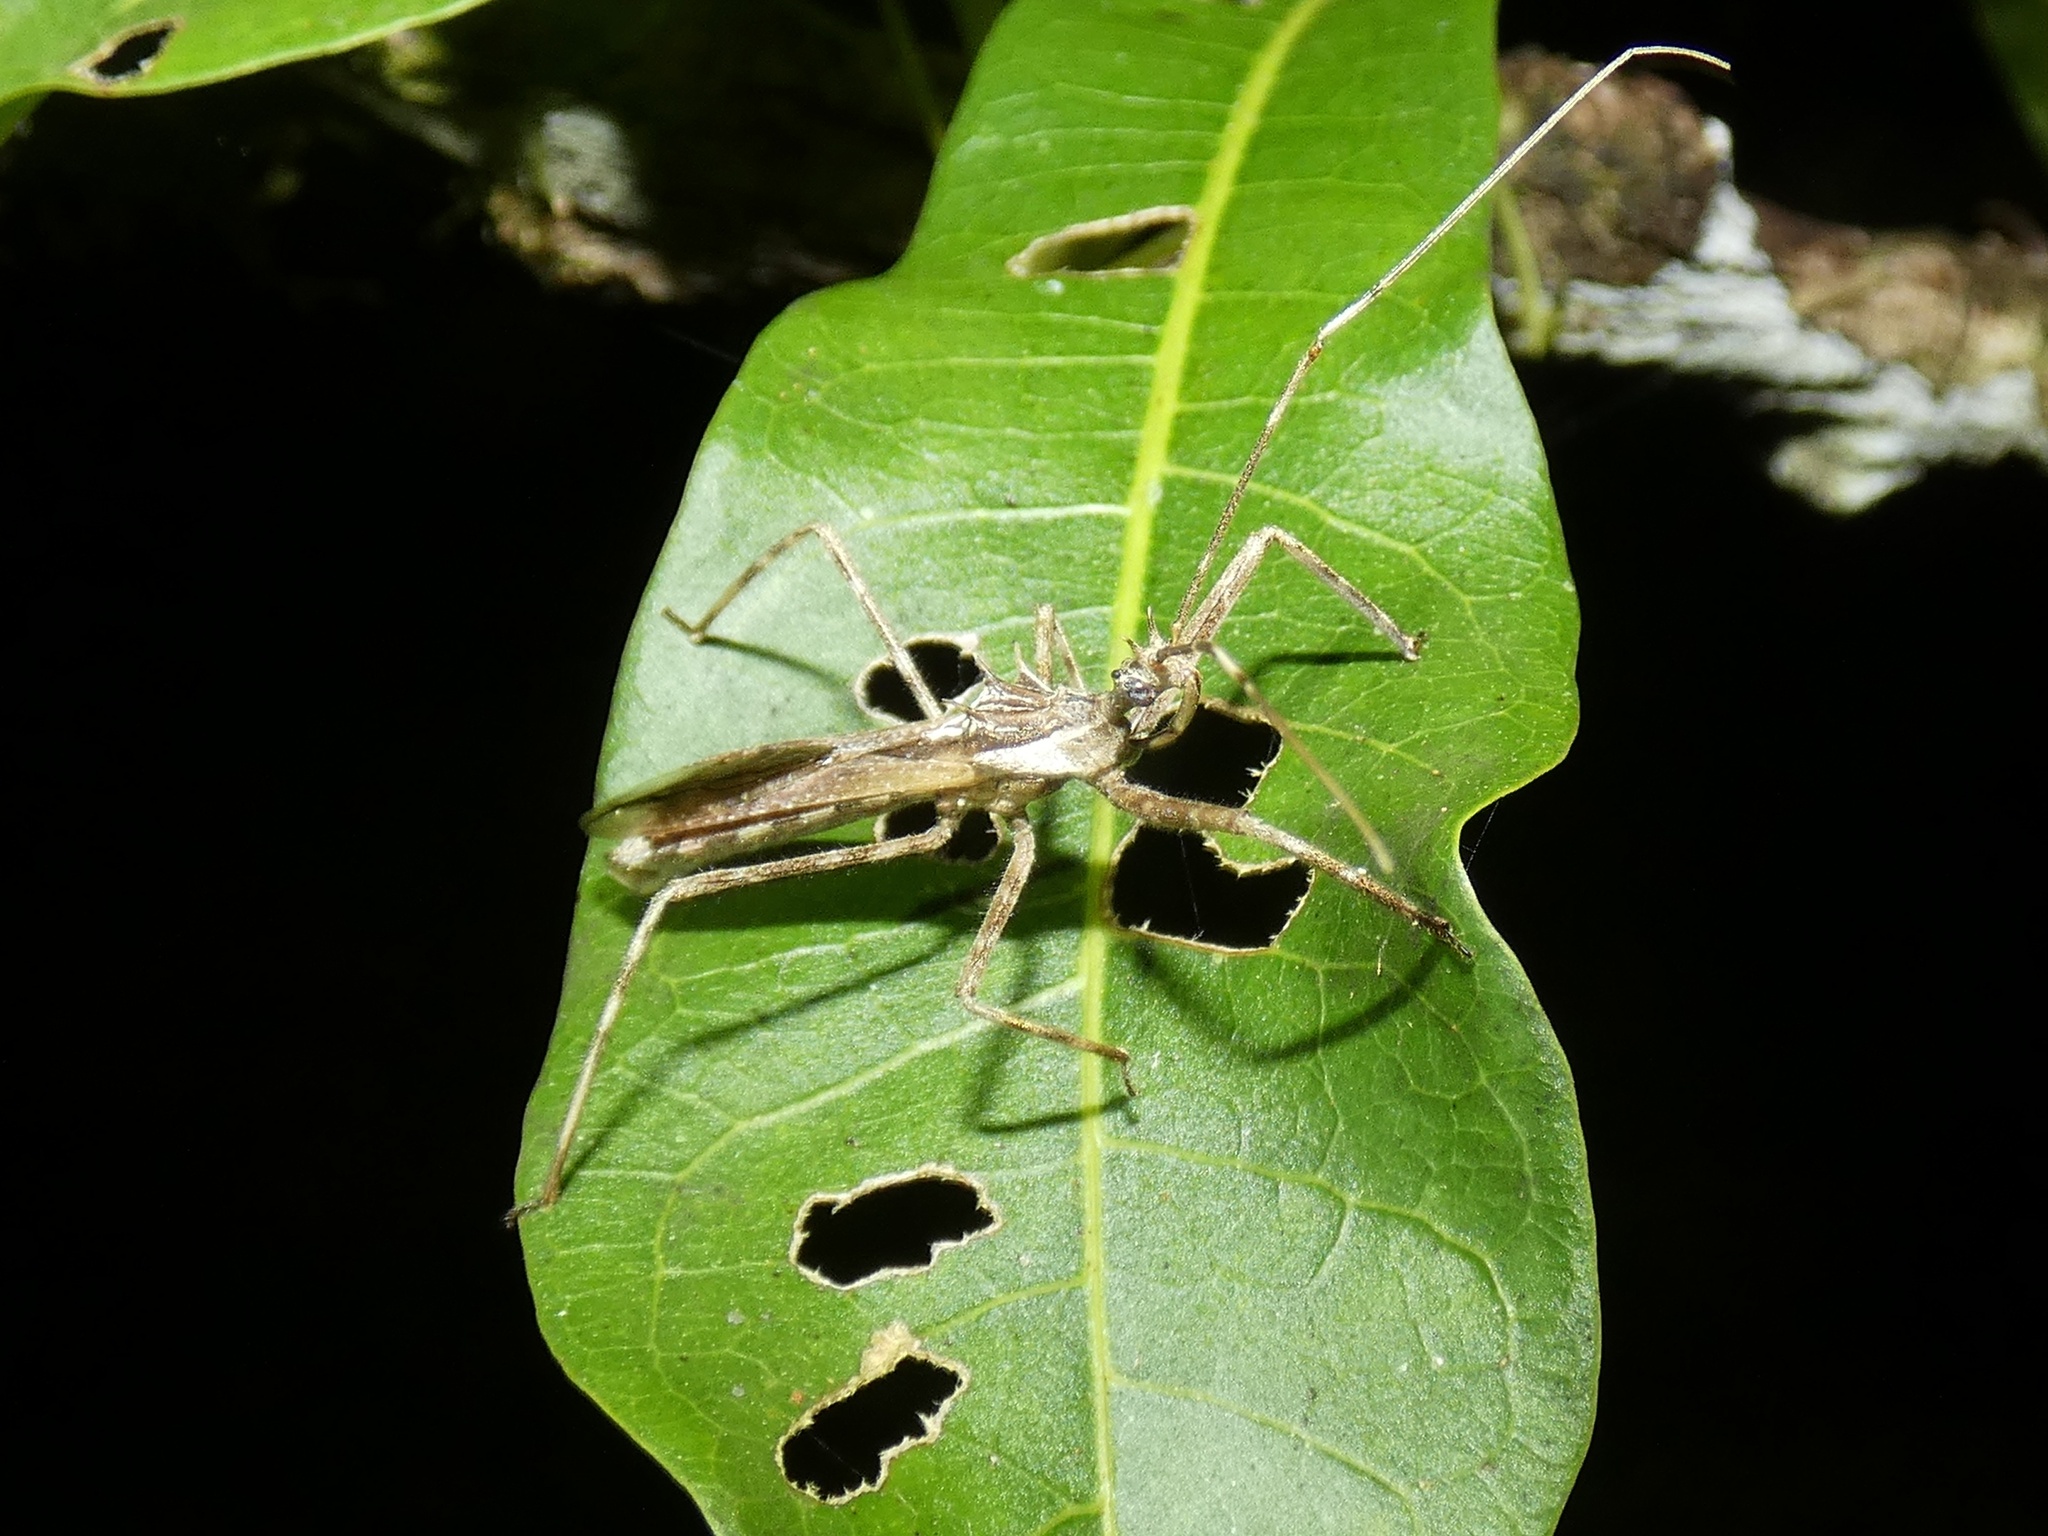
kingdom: Animalia
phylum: Arthropoda
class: Insecta
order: Hemiptera
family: Reduviidae
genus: Heza
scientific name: Heza fuscinervis
